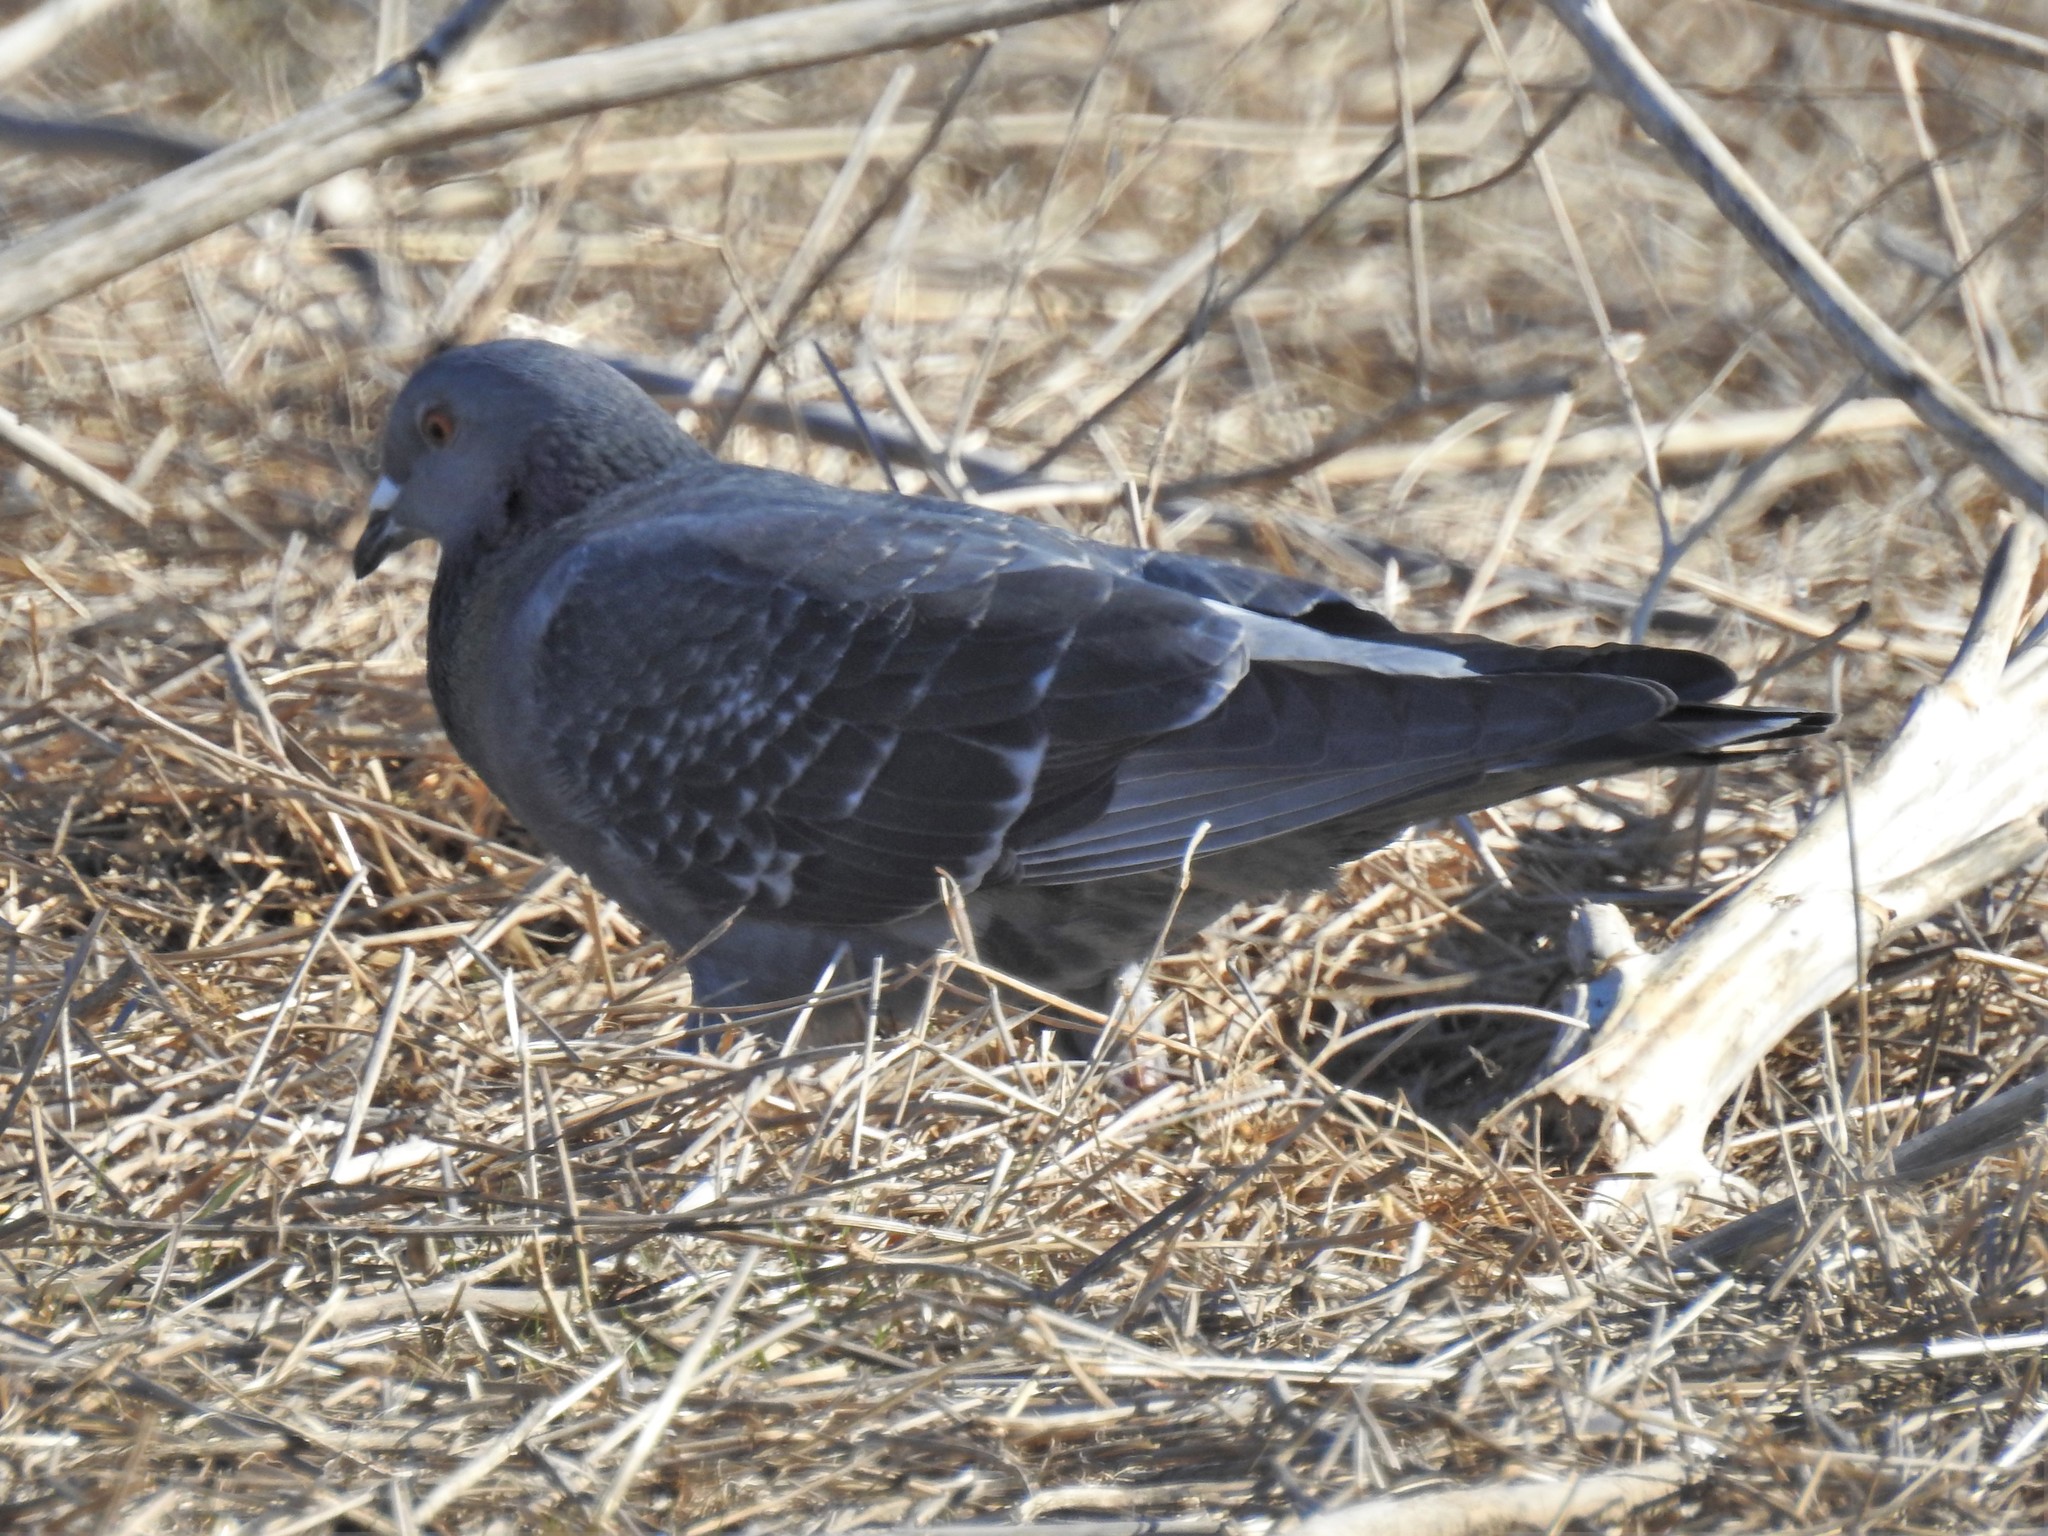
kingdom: Animalia
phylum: Chordata
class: Aves
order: Columbiformes
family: Columbidae
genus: Columba
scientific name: Columba livia
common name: Rock pigeon
